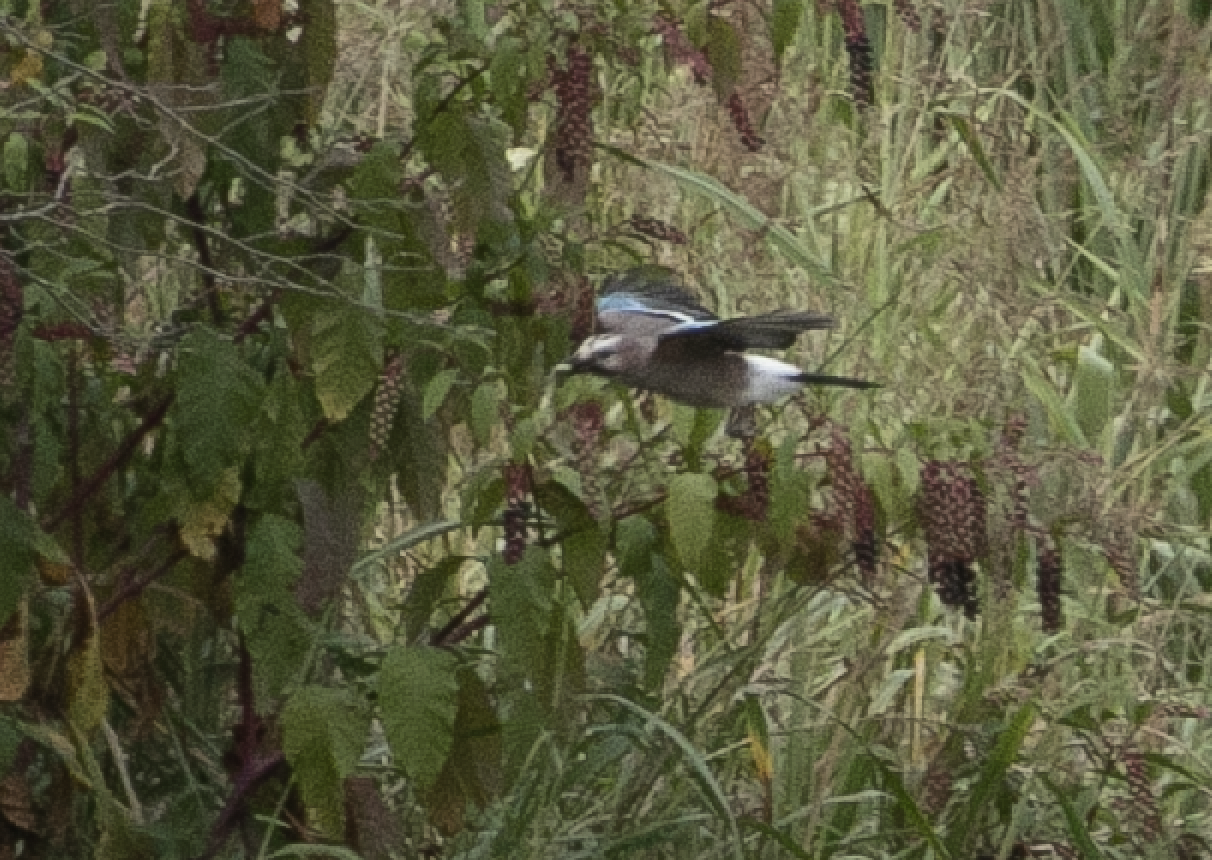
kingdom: Animalia
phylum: Chordata
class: Aves
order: Passeriformes
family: Corvidae
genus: Garrulus
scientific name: Garrulus glandarius
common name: Eurasian jay
